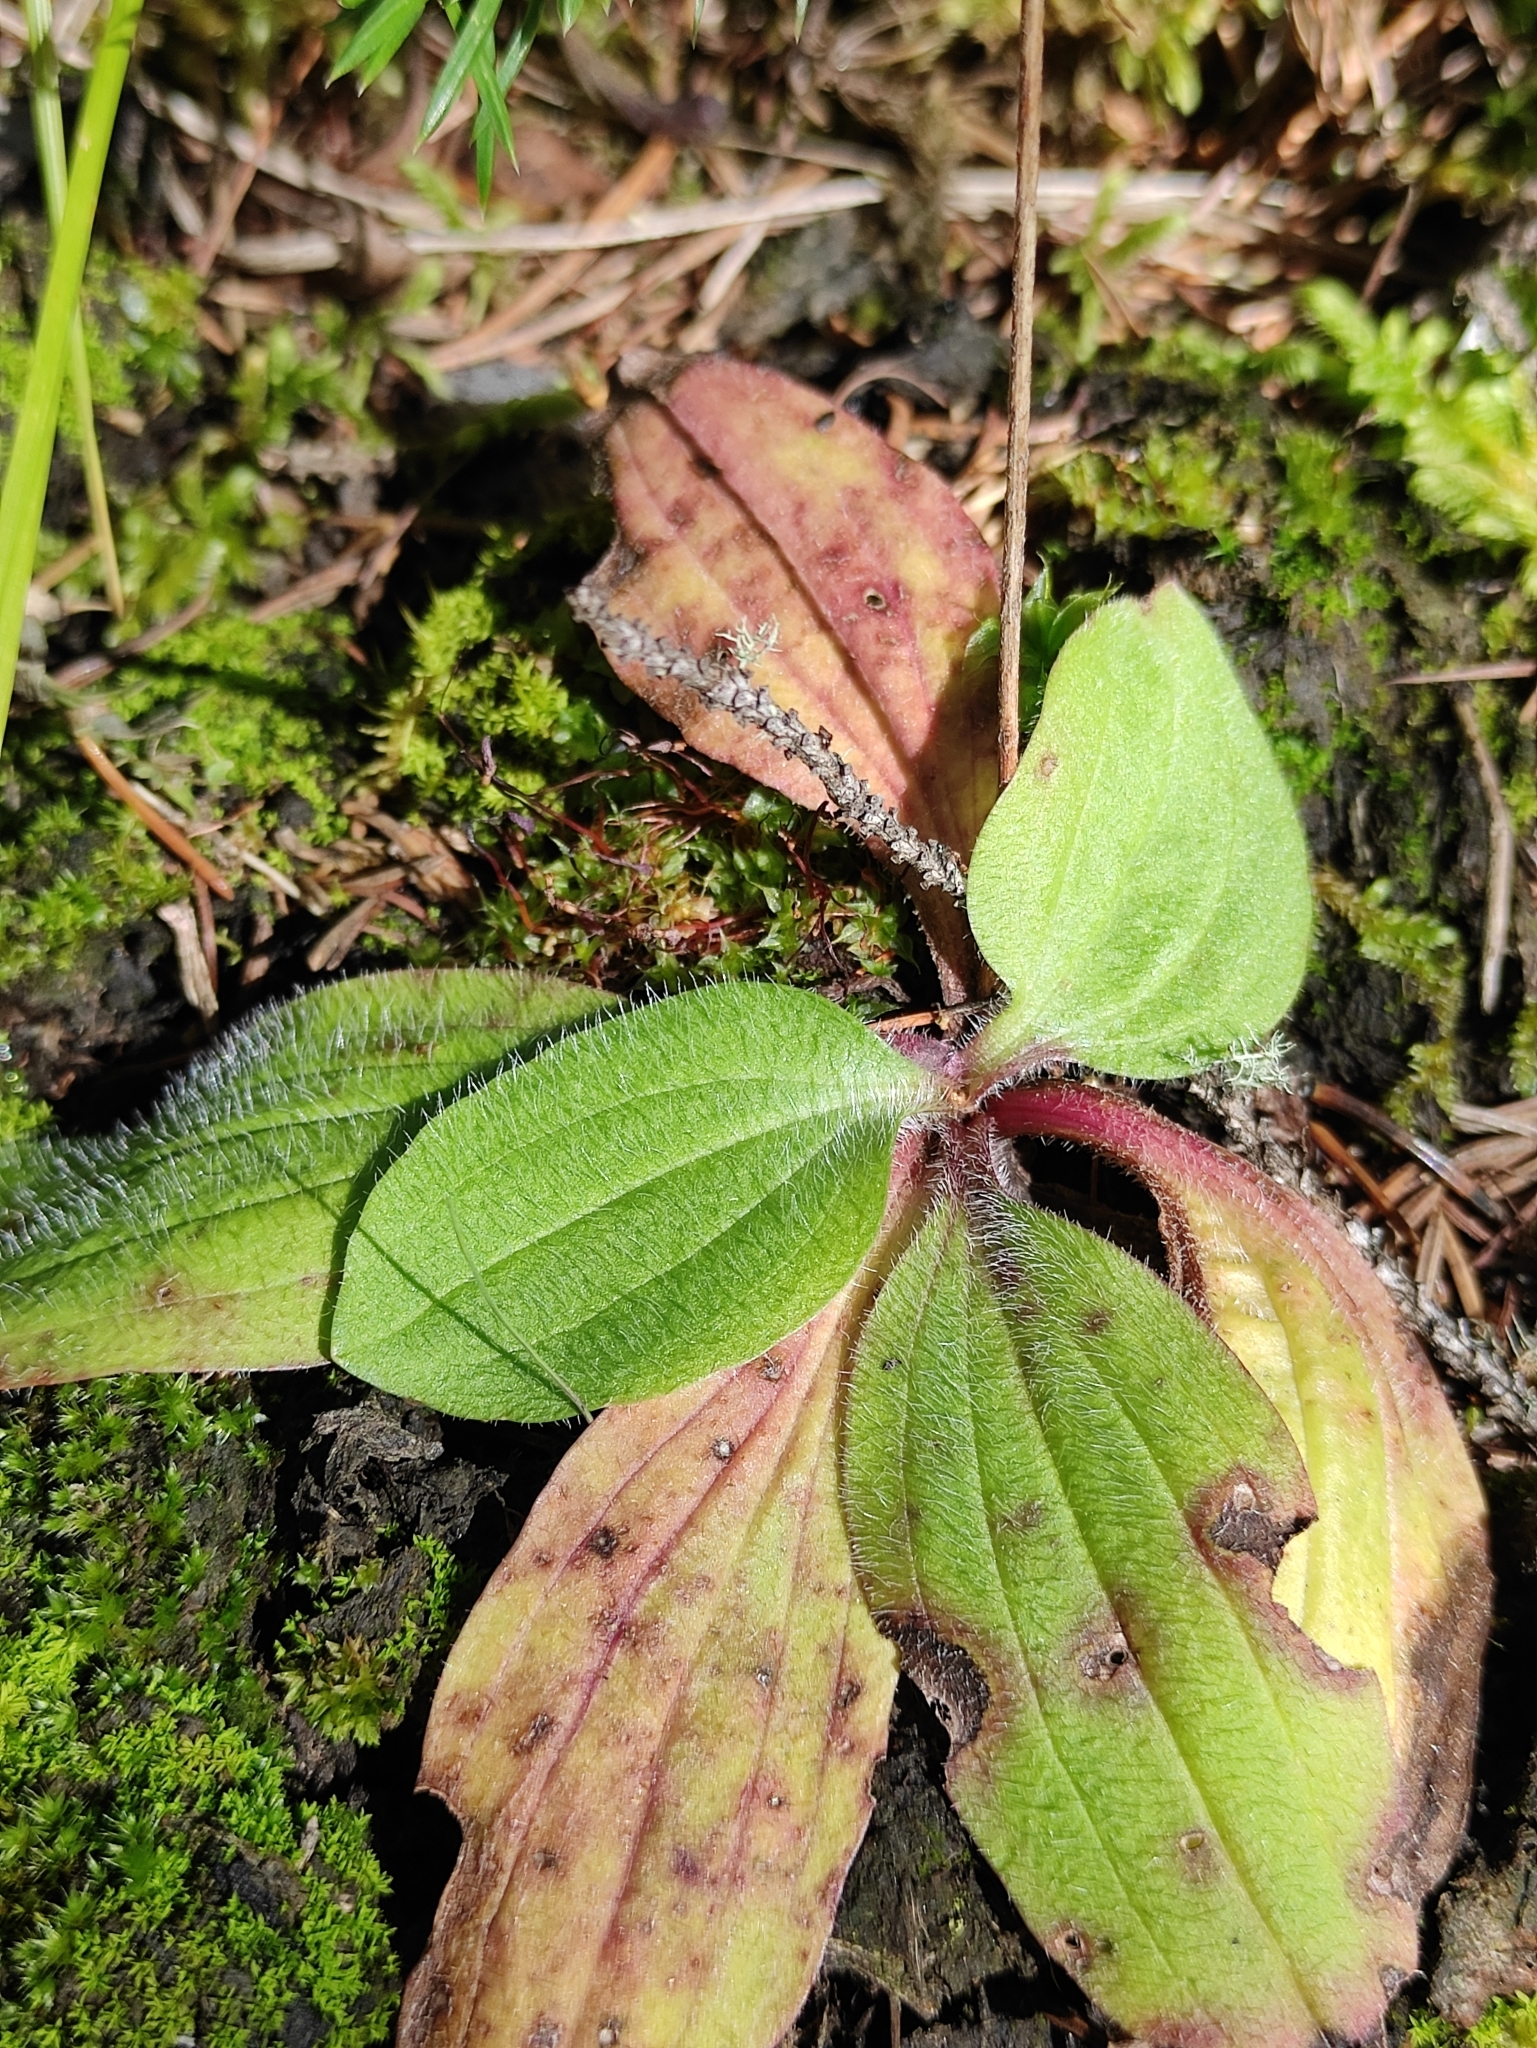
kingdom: Plantae
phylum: Tracheophyta
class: Magnoliopsida
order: Lamiales
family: Plantaginaceae
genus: Plantago
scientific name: Plantago media
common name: Hoary plantain
